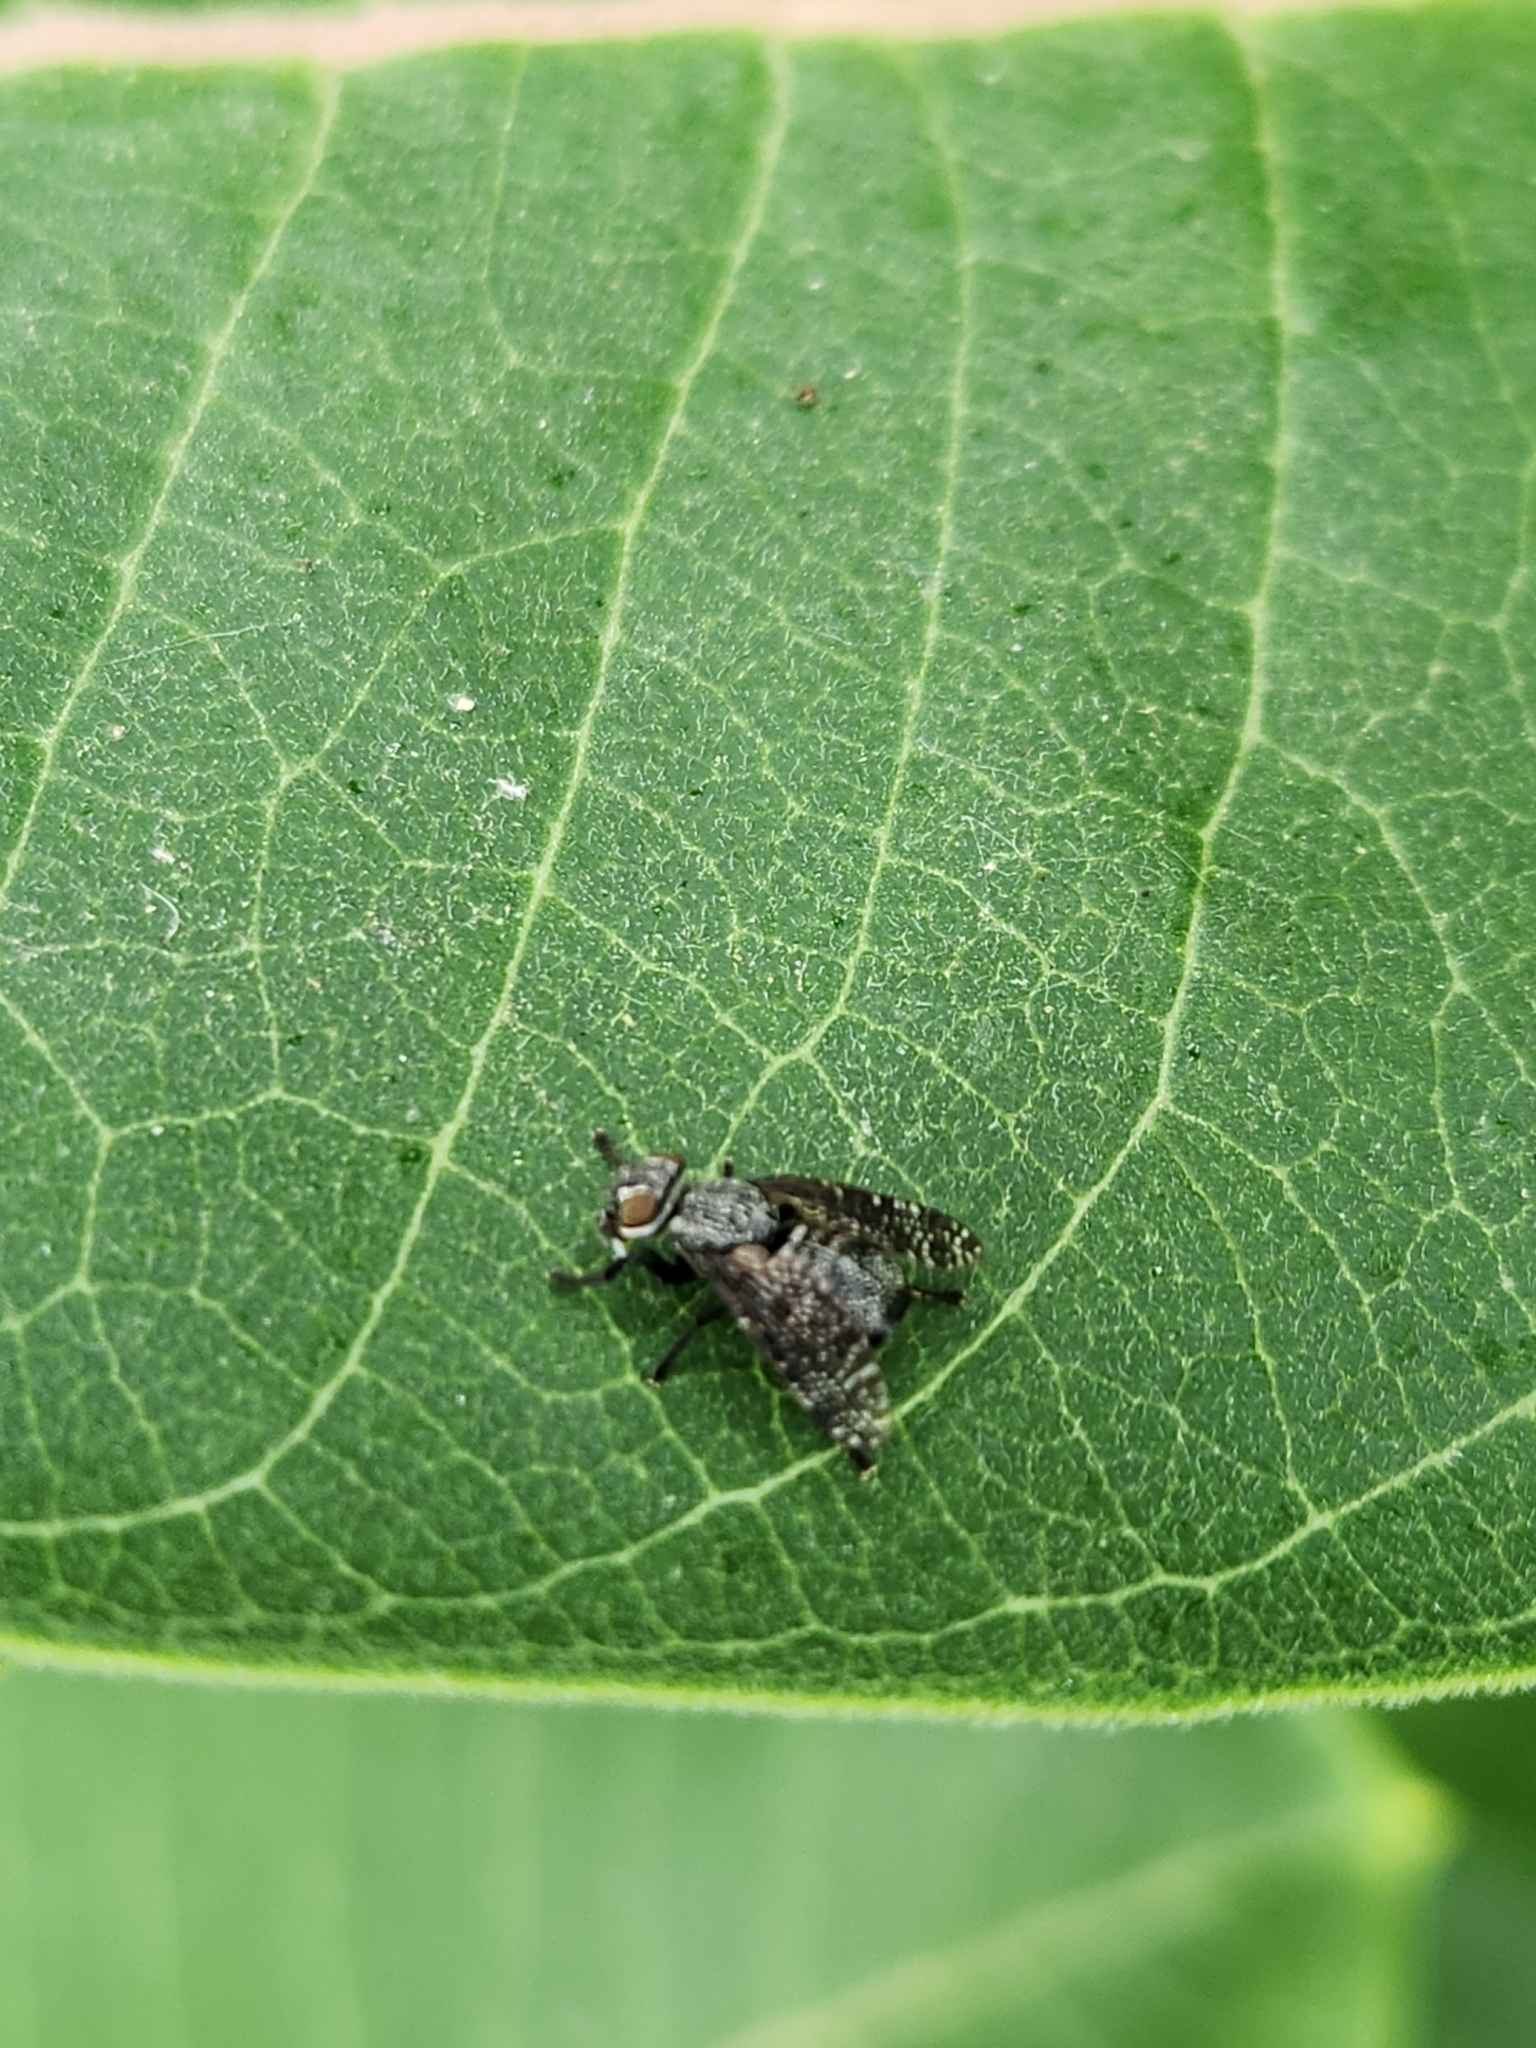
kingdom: Animalia
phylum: Arthropoda
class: Insecta
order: Diptera
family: Platystomatidae
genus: Platystoma
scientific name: Platystoma seminationis
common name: Fly
